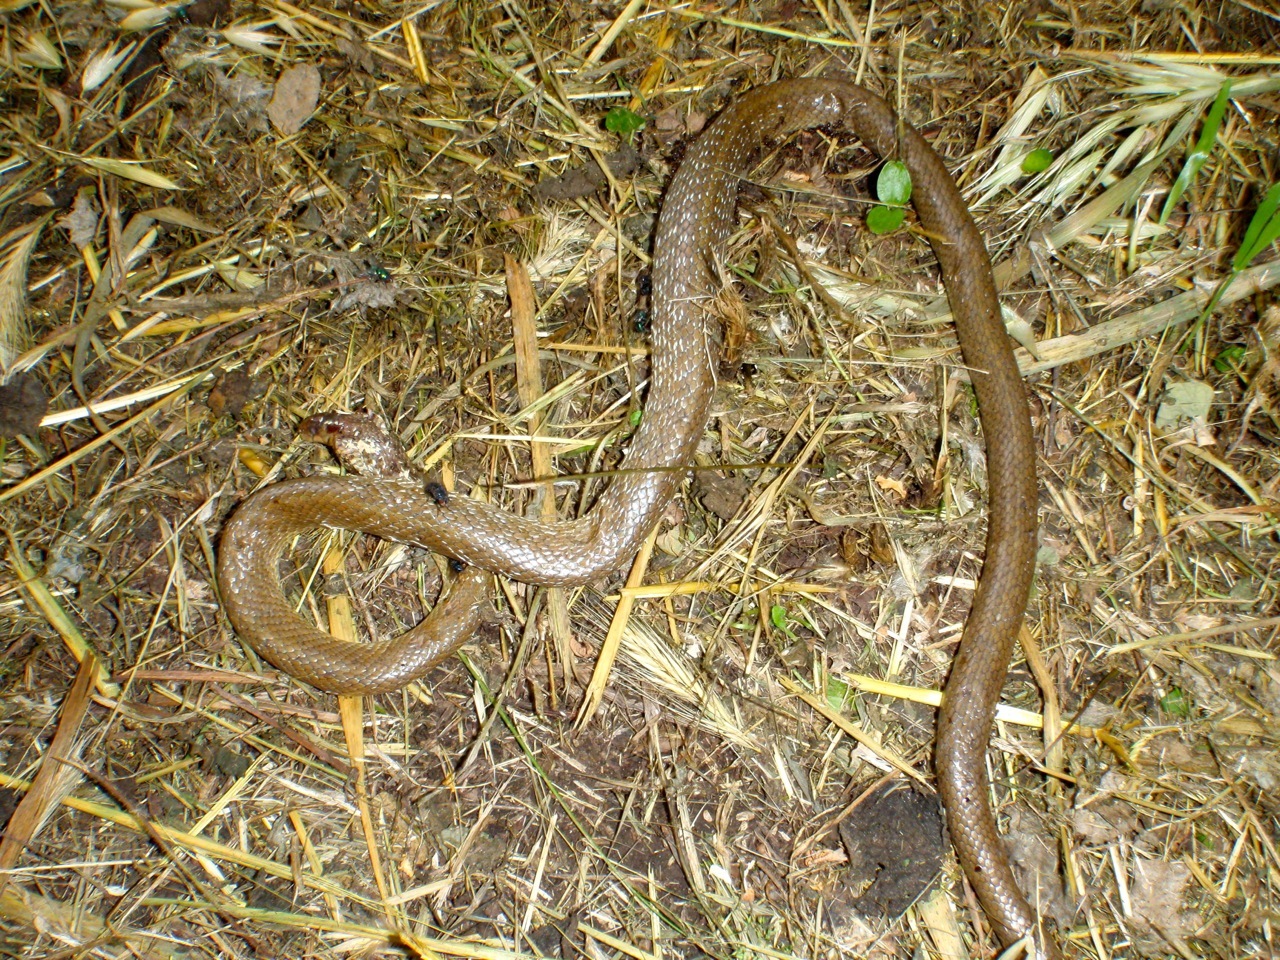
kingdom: Animalia
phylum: Chordata
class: Squamata
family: Colubridae
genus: Zamenis
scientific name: Zamenis longissimus
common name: Aesculapean snake
